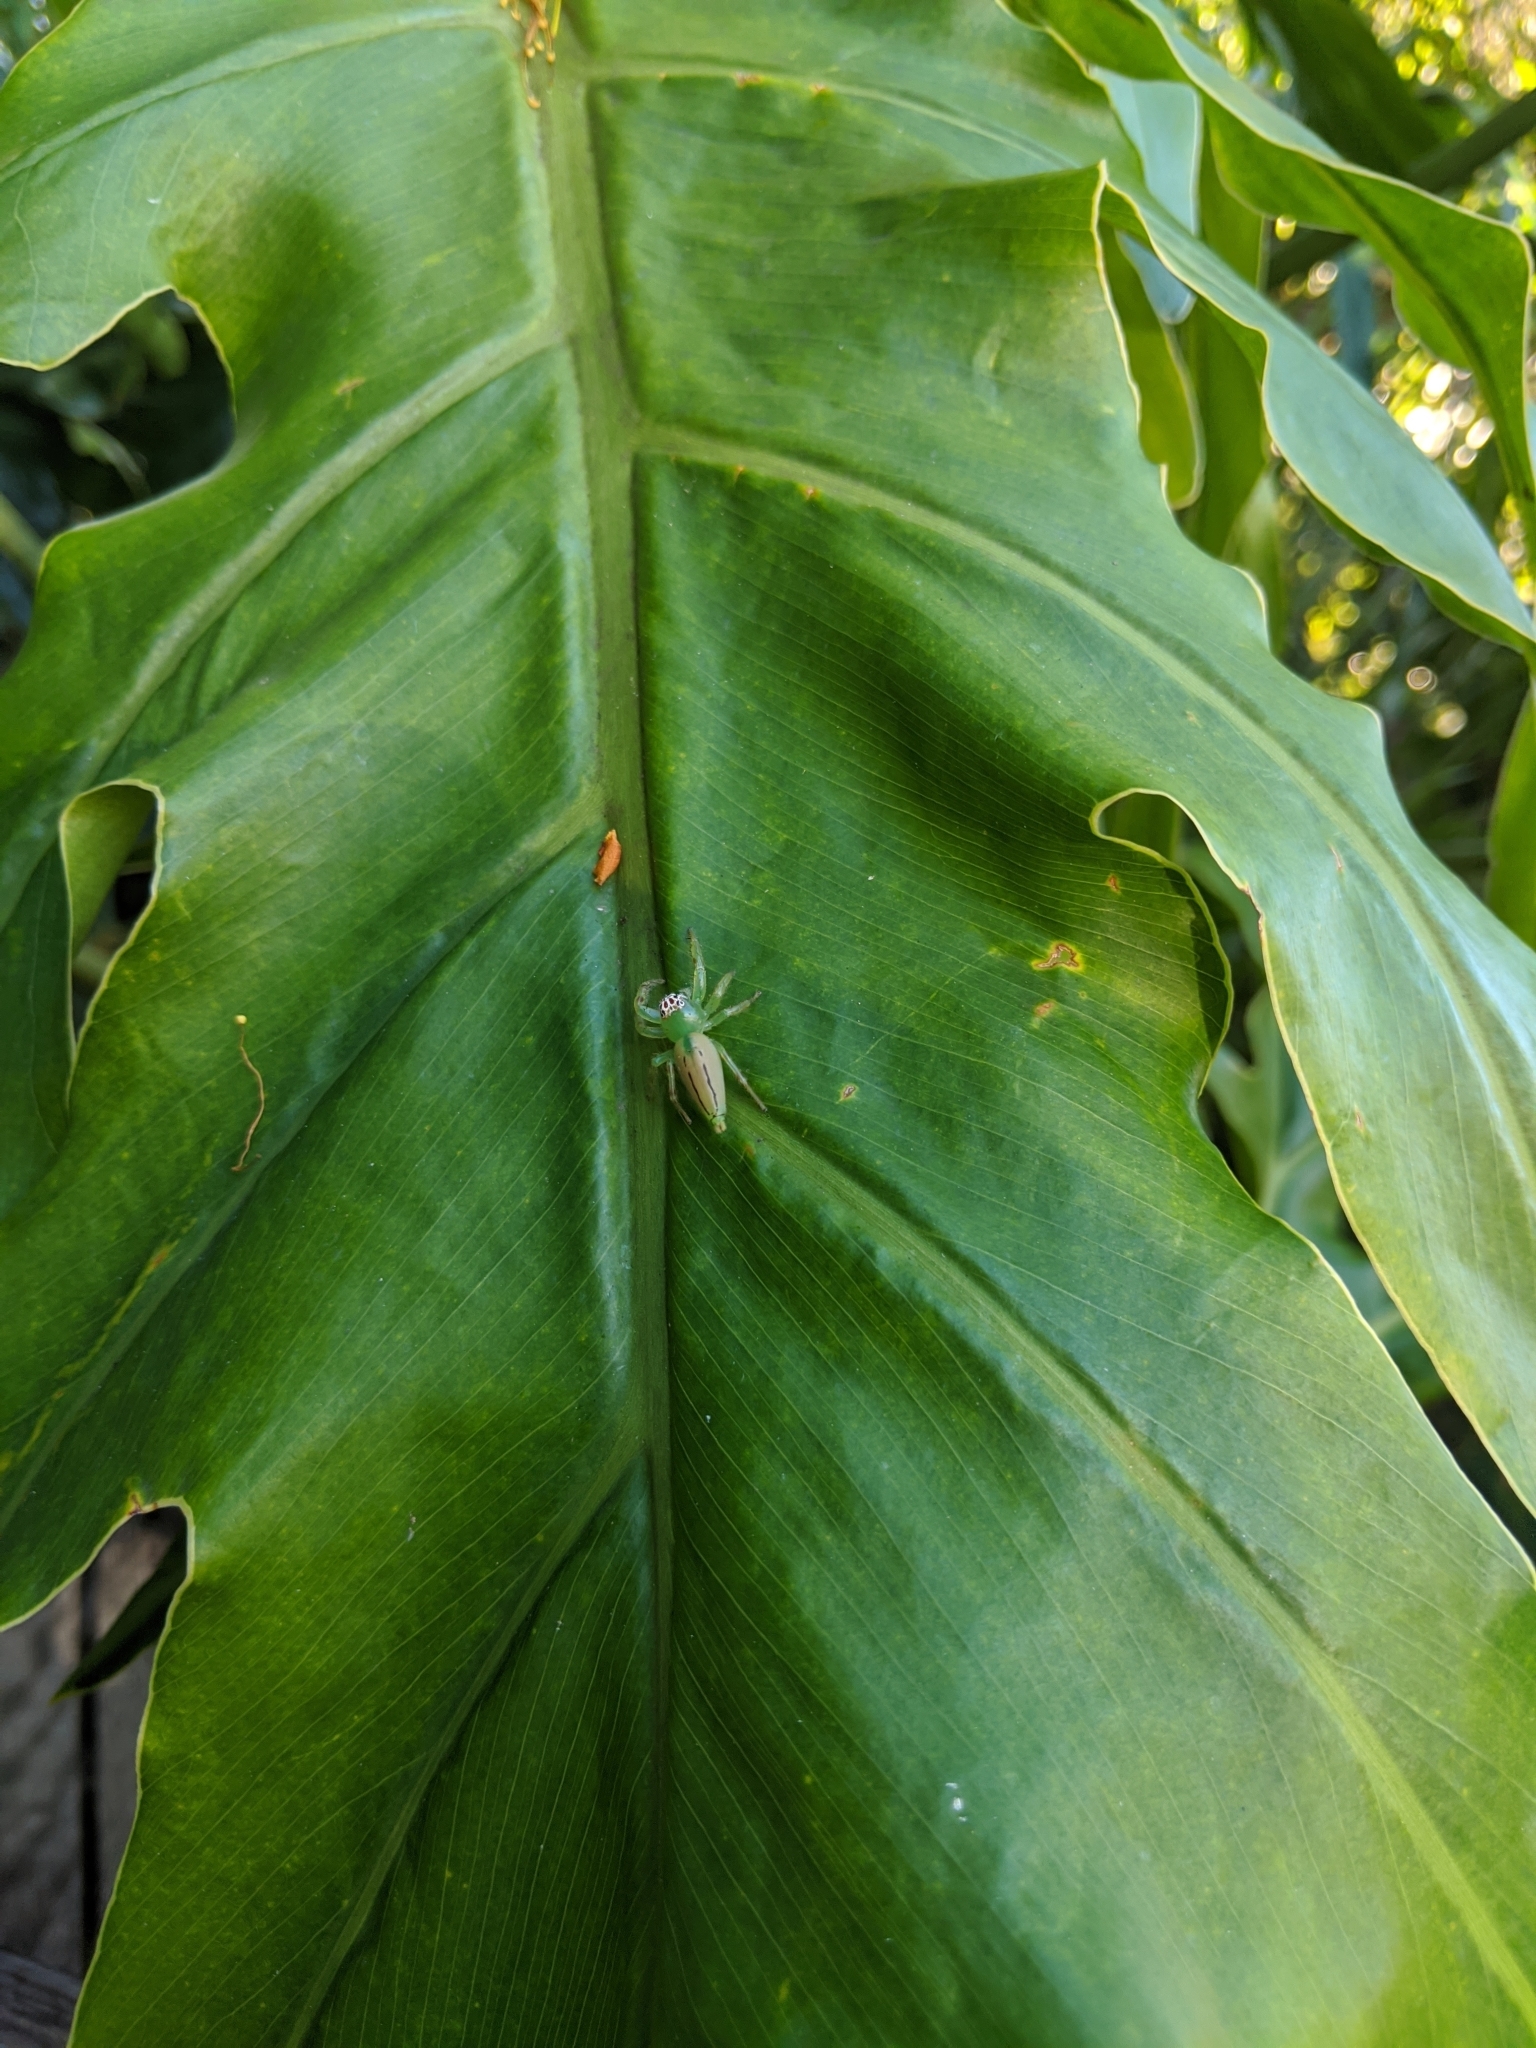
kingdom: Animalia
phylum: Arthropoda
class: Arachnida
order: Araneae
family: Salticidae
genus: Mopsus
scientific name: Mopsus mormon
